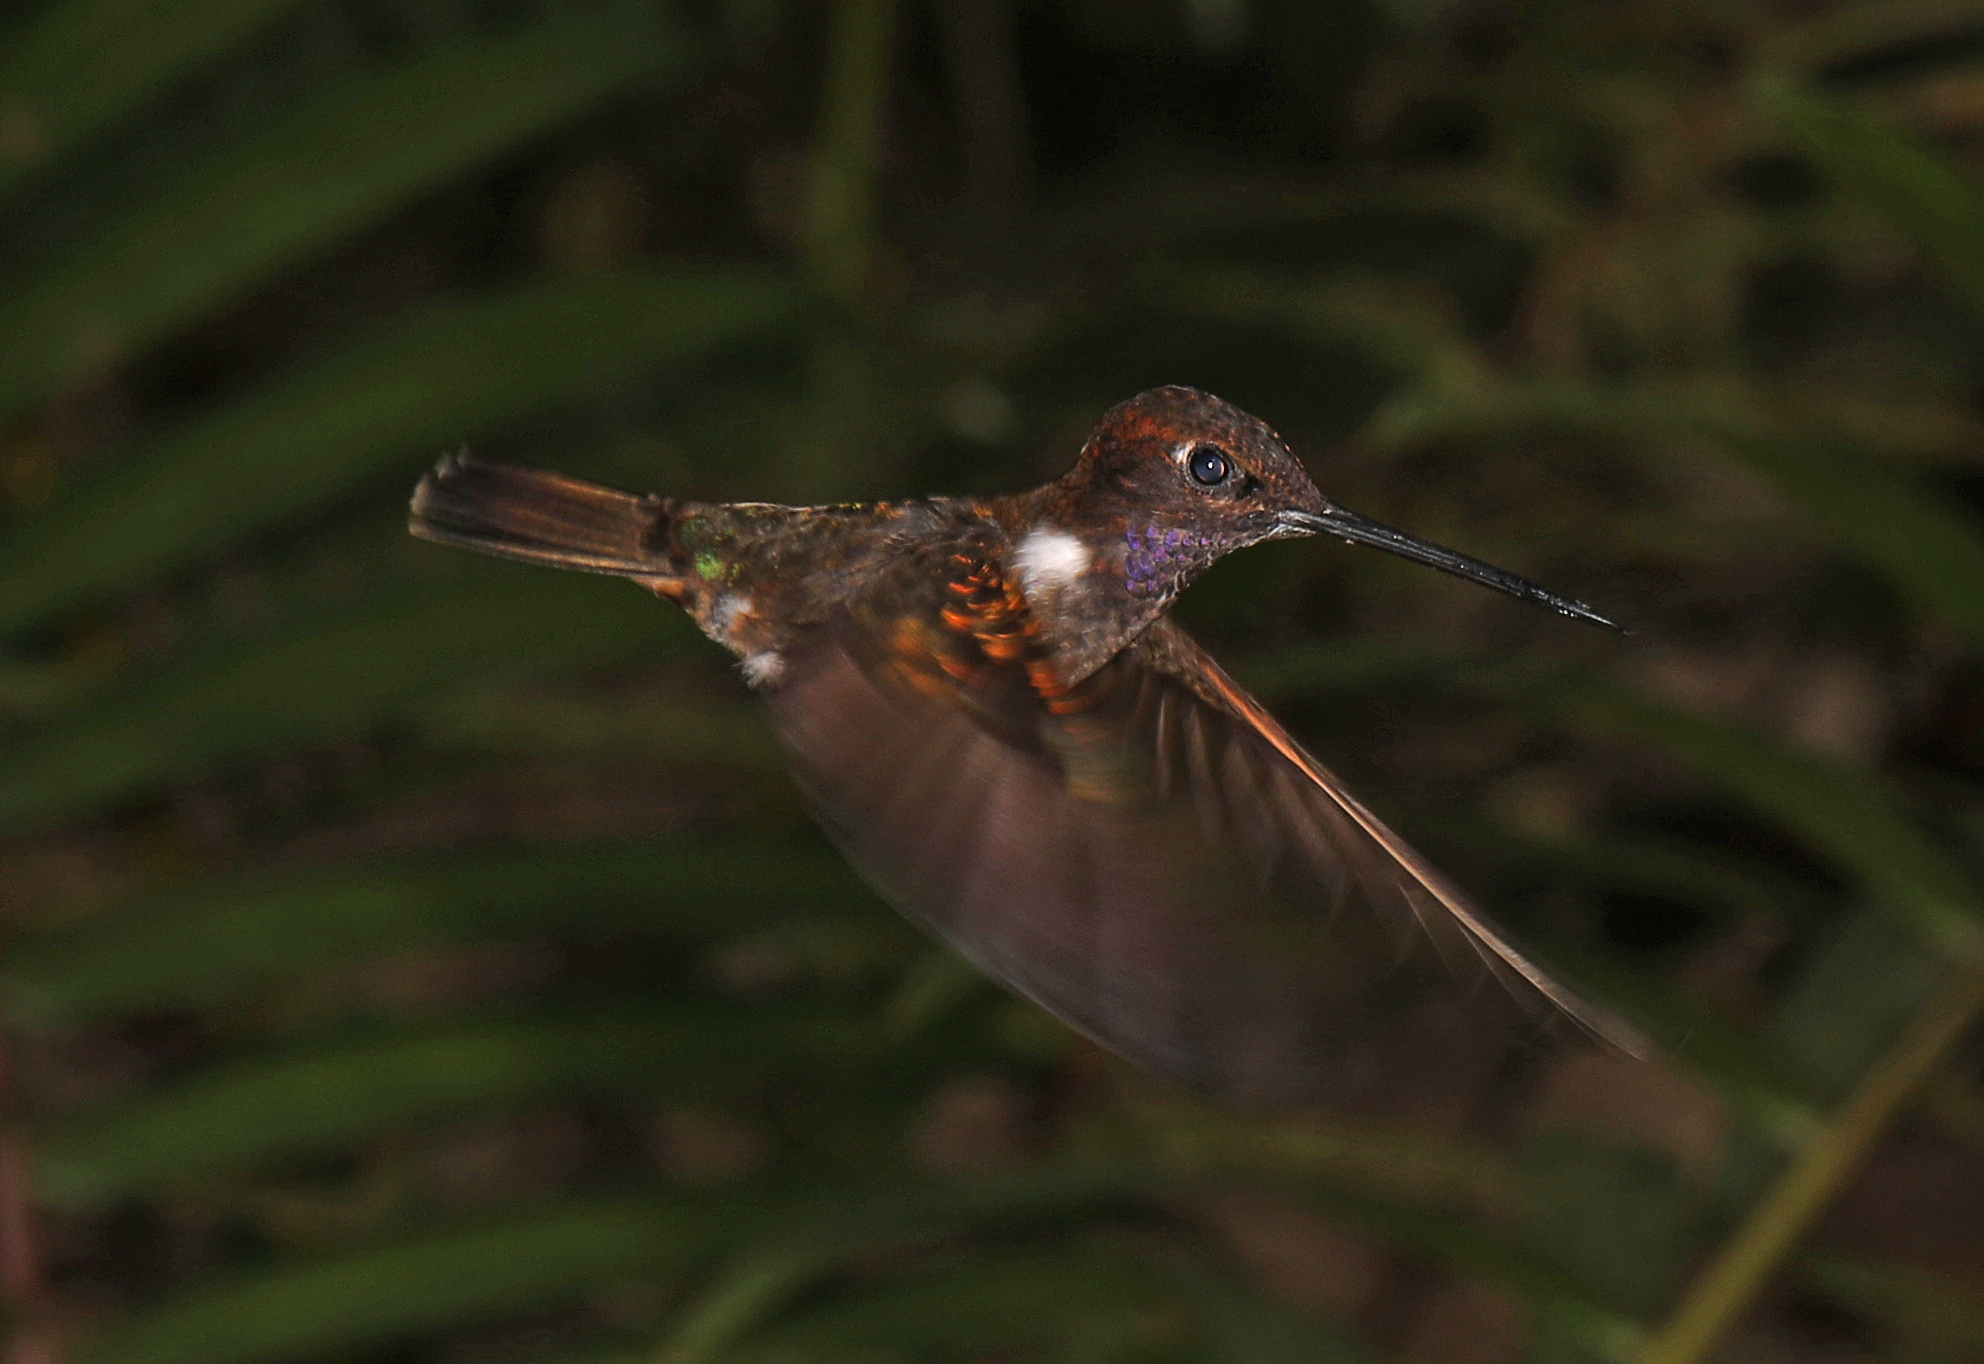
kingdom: Animalia
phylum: Chordata
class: Aves
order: Apodiformes
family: Trochilidae
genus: Coeligena
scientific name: Coeligena wilsoni
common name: Brown inca
